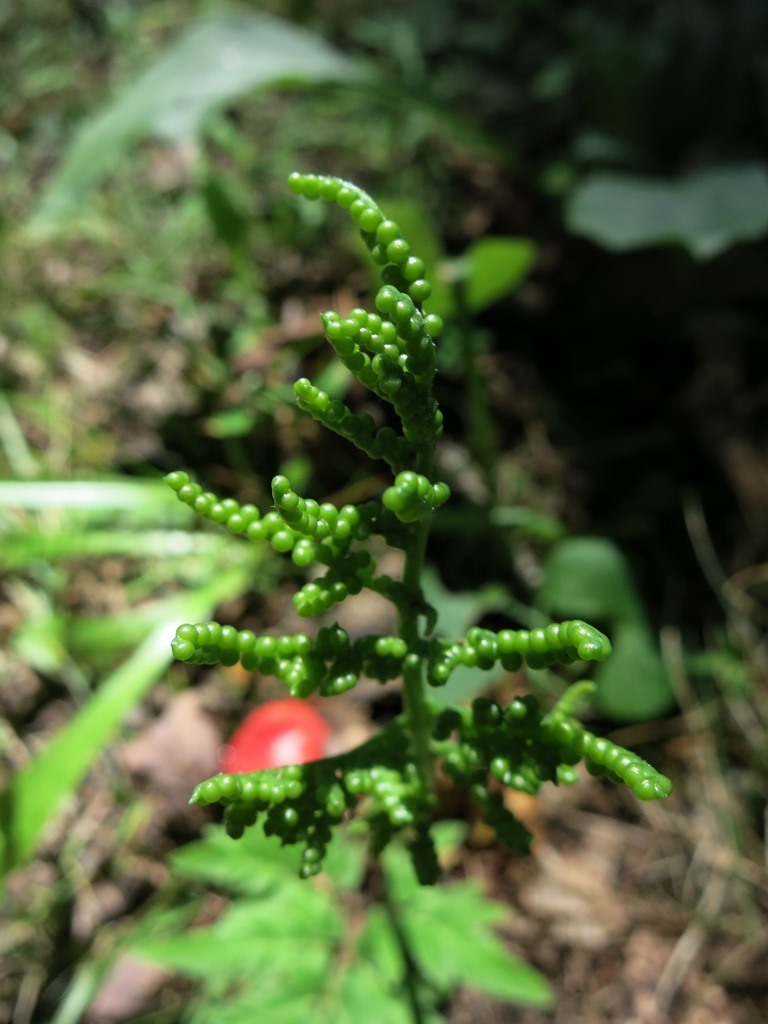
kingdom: Plantae
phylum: Tracheophyta
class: Polypodiopsida
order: Ophioglossales
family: Ophioglossaceae
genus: Sceptridium
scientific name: Sceptridium dissectum
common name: Cut-leaved grapefern
